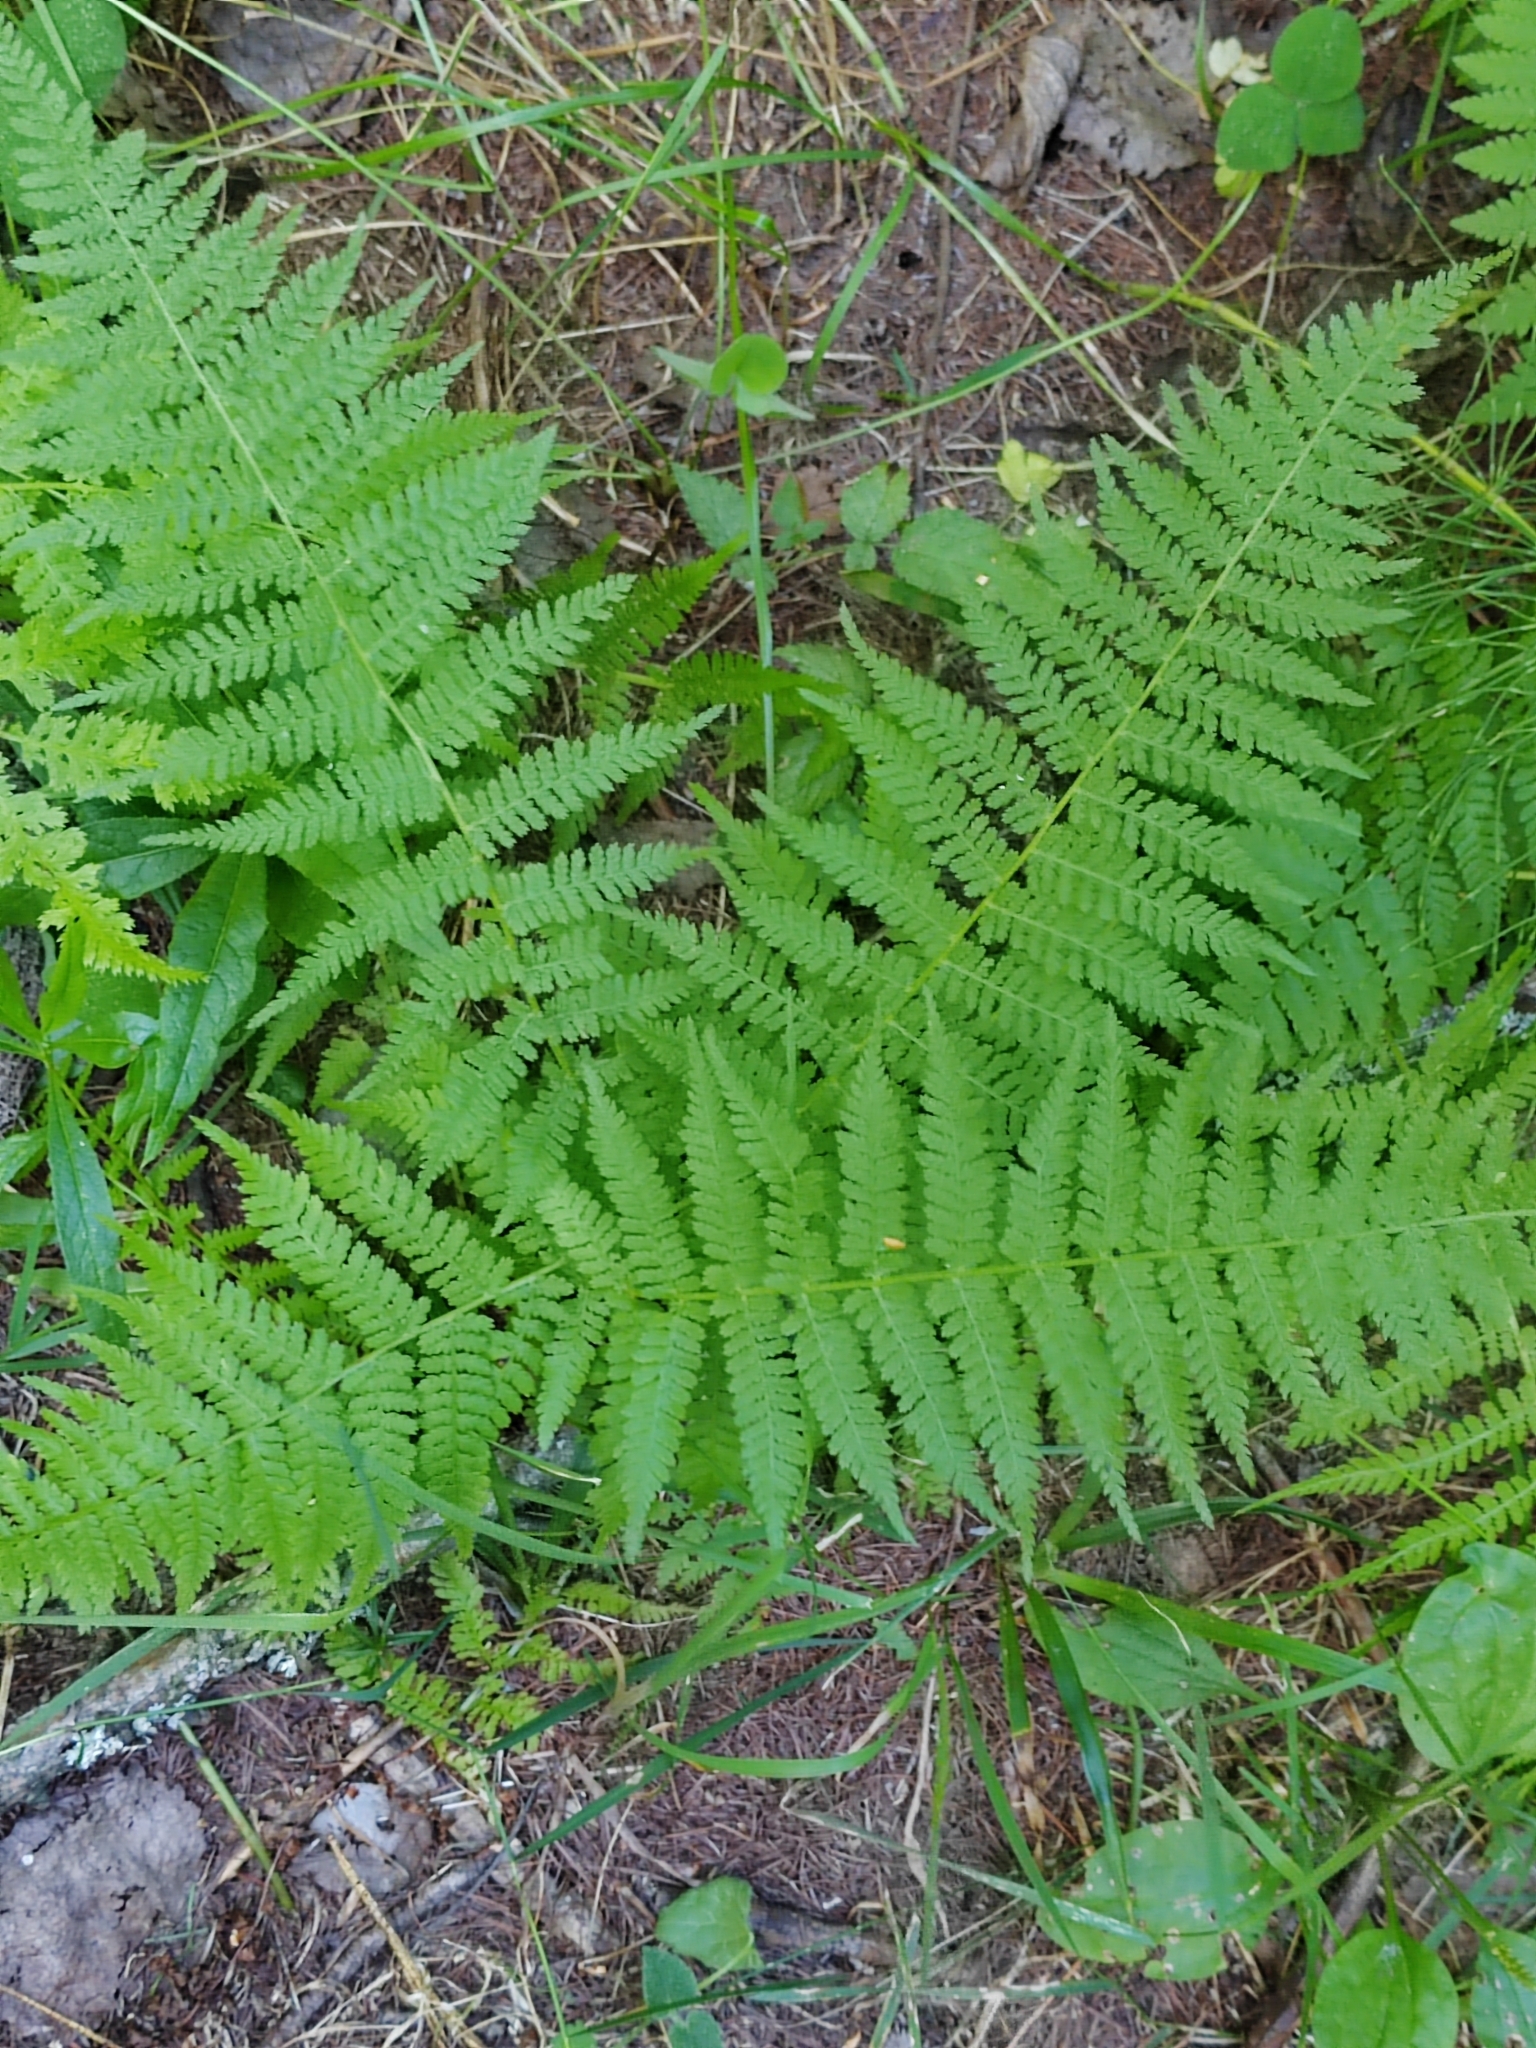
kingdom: Plantae
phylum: Tracheophyta
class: Polypodiopsida
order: Polypodiales
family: Athyriaceae
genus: Athyrium
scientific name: Athyrium filix-femina
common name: Lady fern
